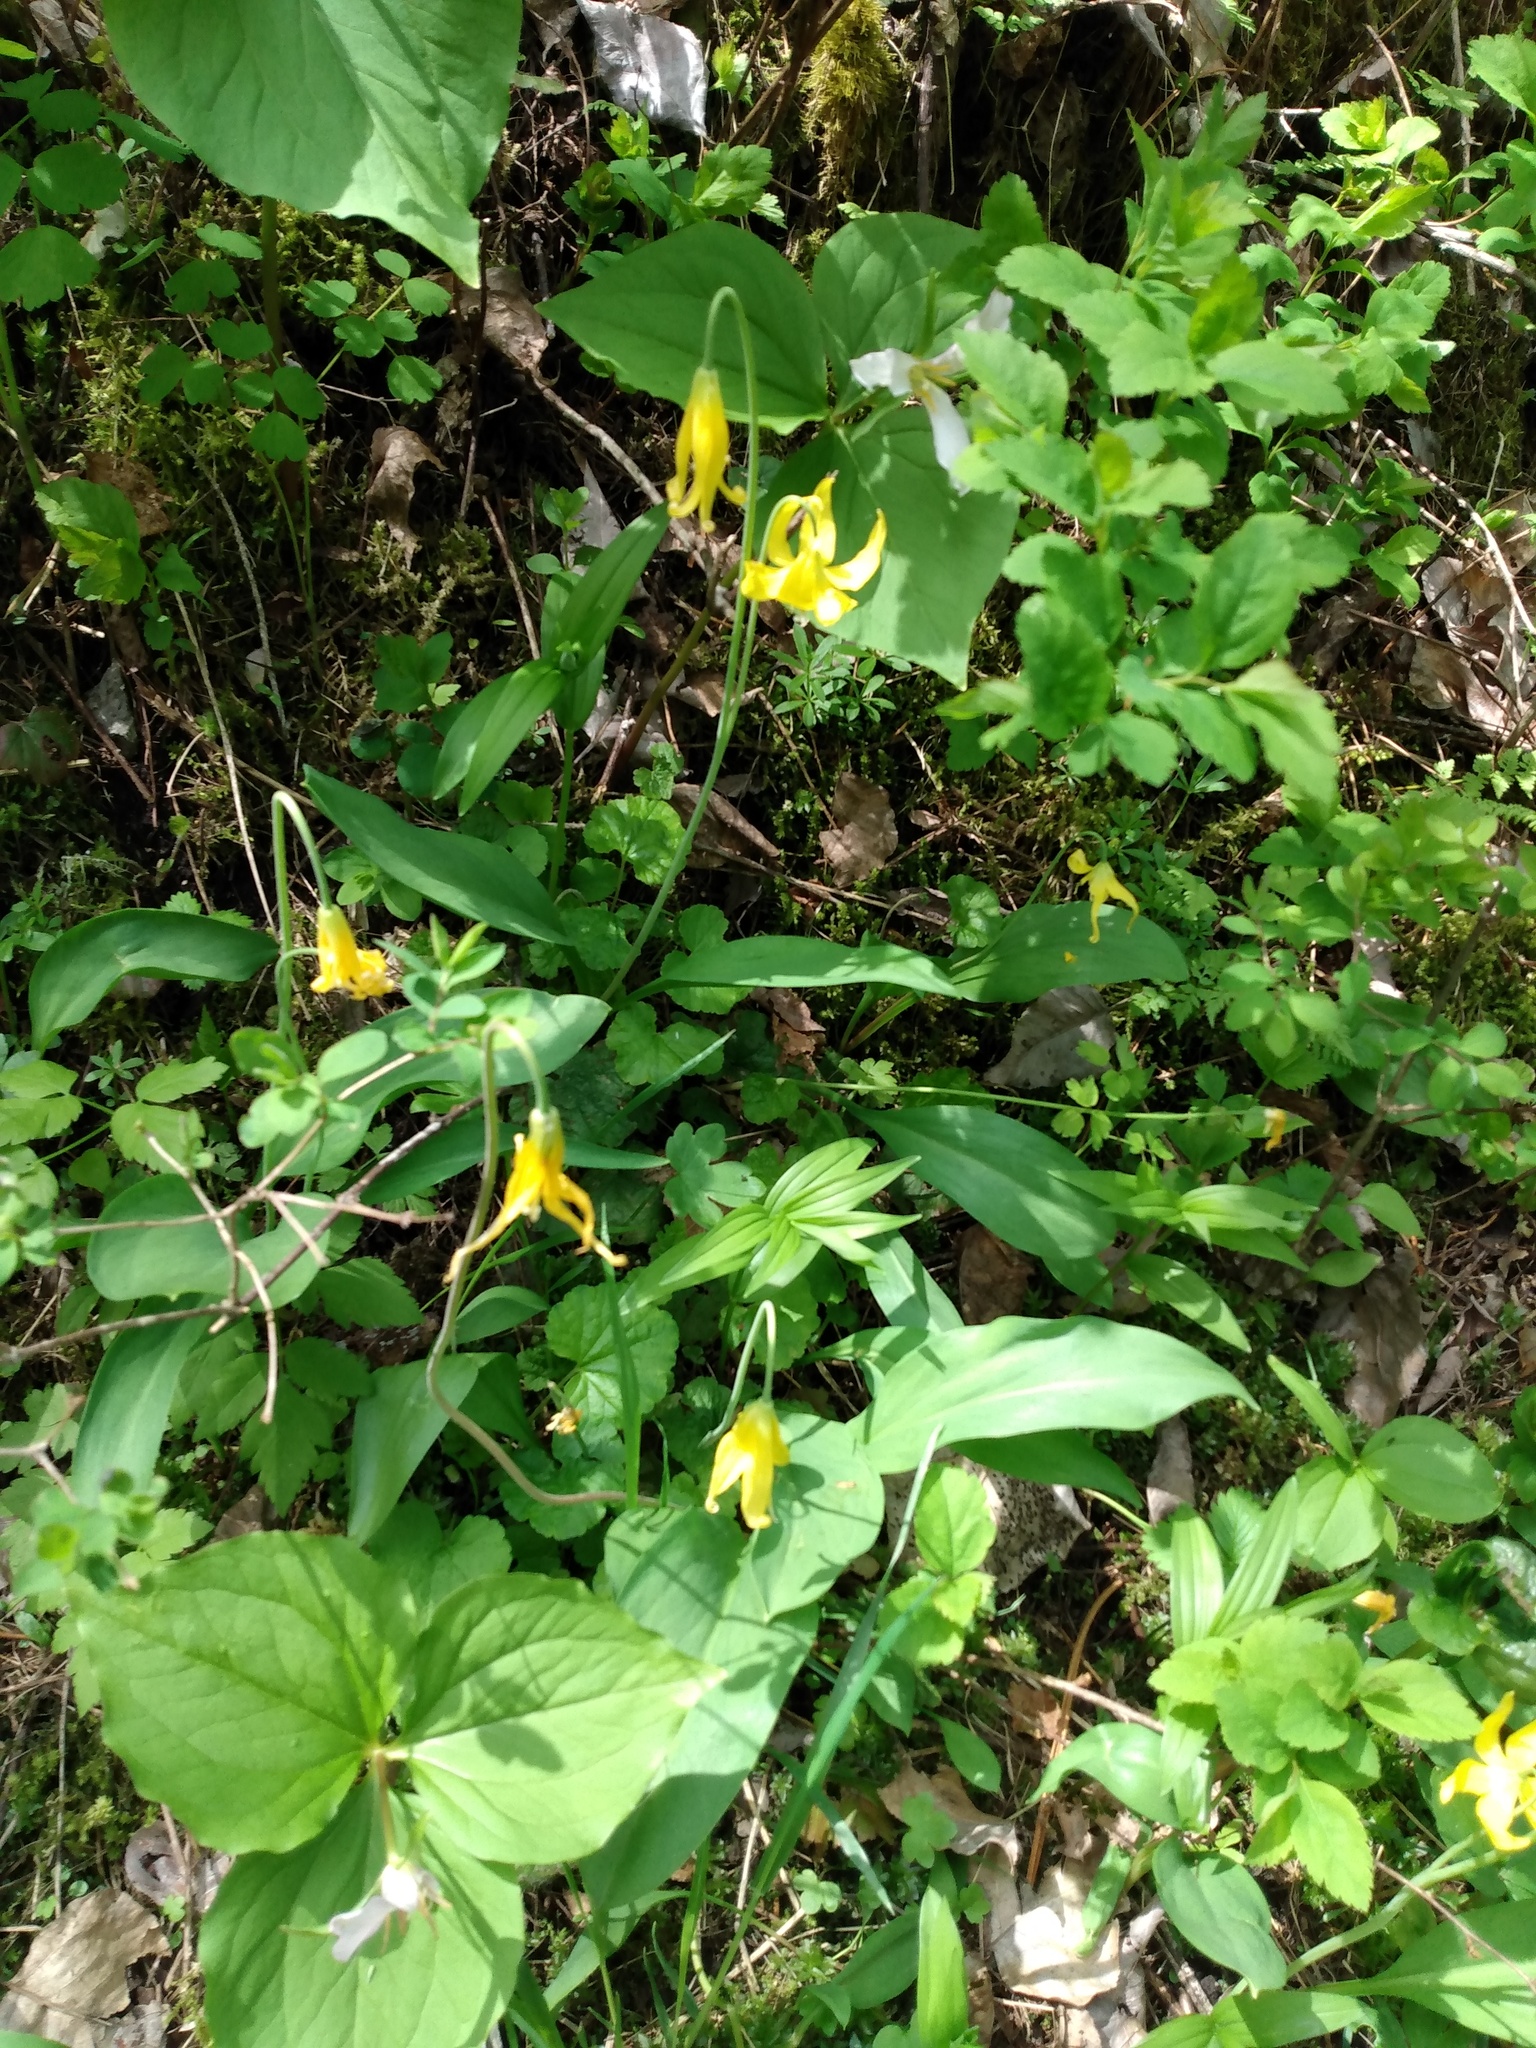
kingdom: Plantae
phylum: Tracheophyta
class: Liliopsida
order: Liliales
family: Liliaceae
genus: Erythronium
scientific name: Erythronium grandiflorum
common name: Avalanche-lily
